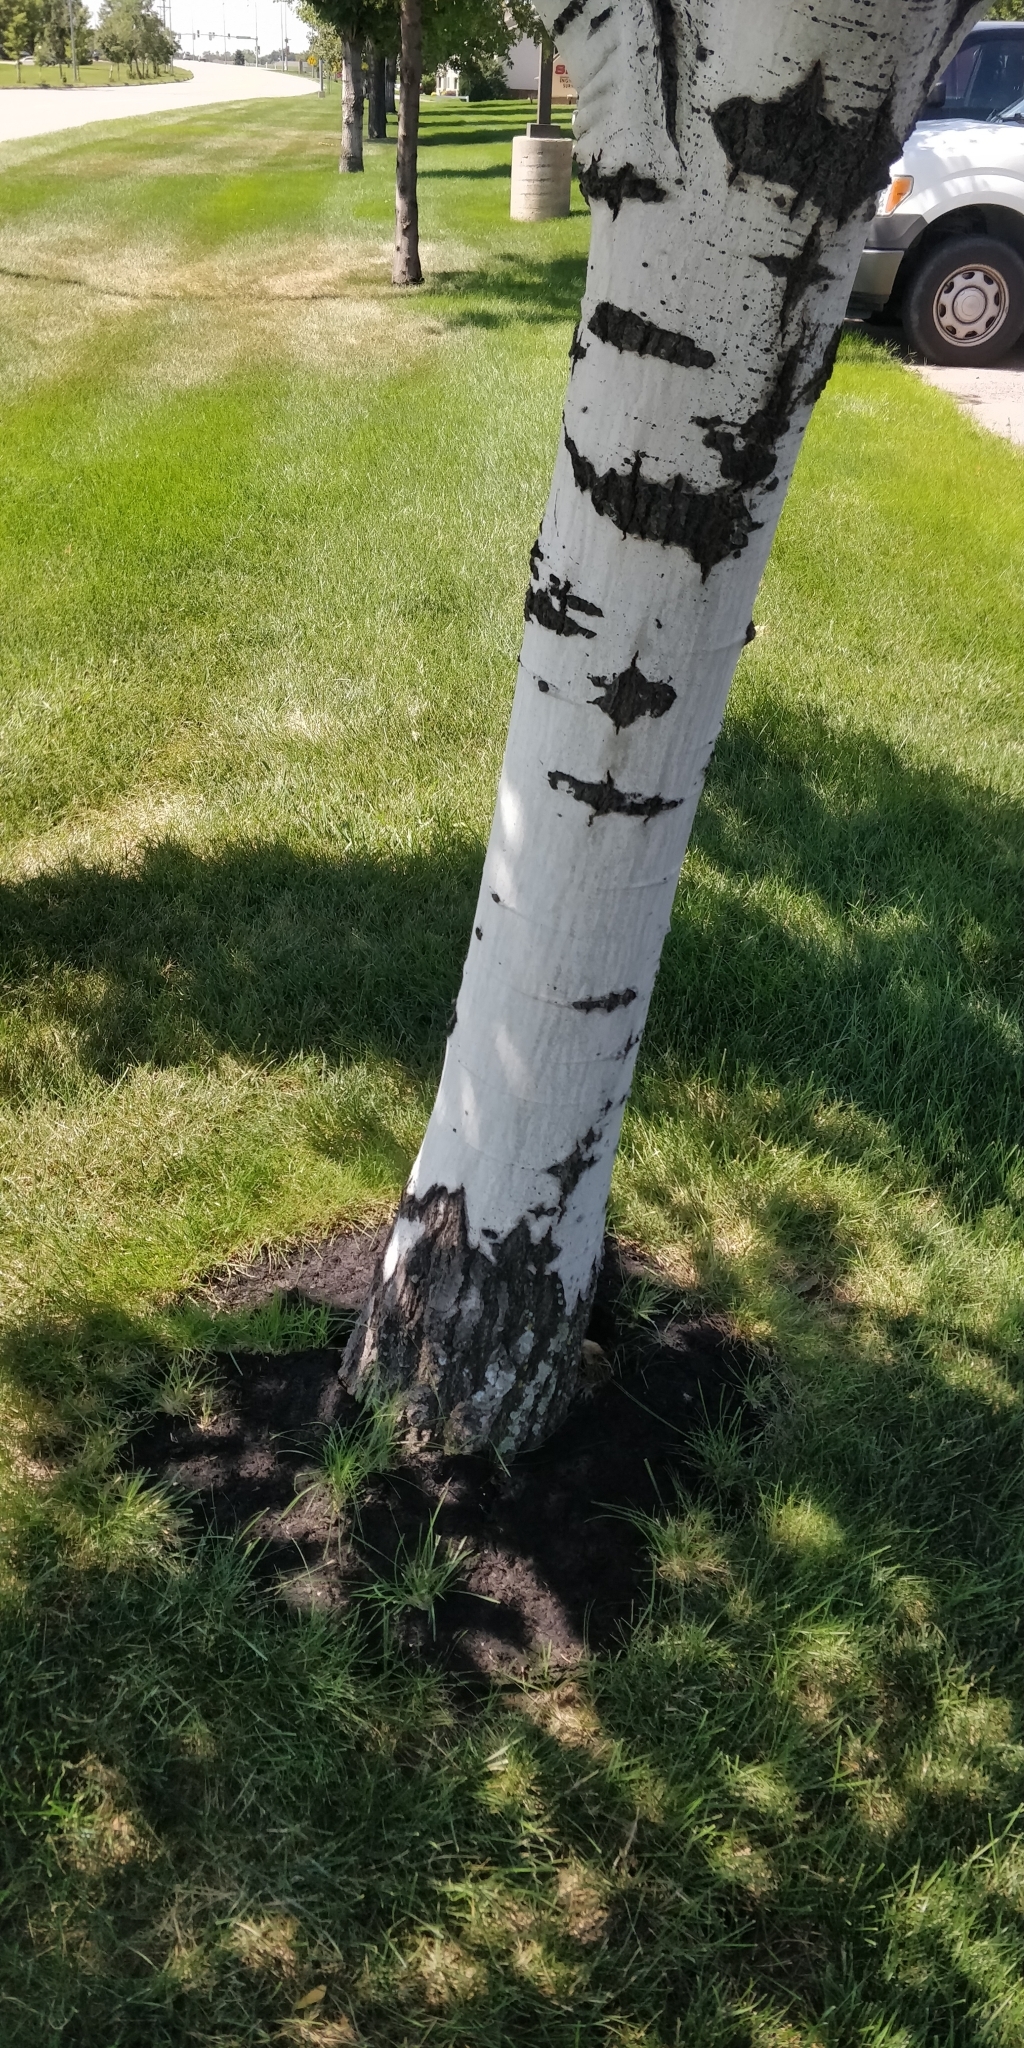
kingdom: Plantae
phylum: Tracheophyta
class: Magnoliopsida
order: Malpighiales
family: Salicaceae
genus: Populus
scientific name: Populus tremuloides
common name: Quaking aspen
